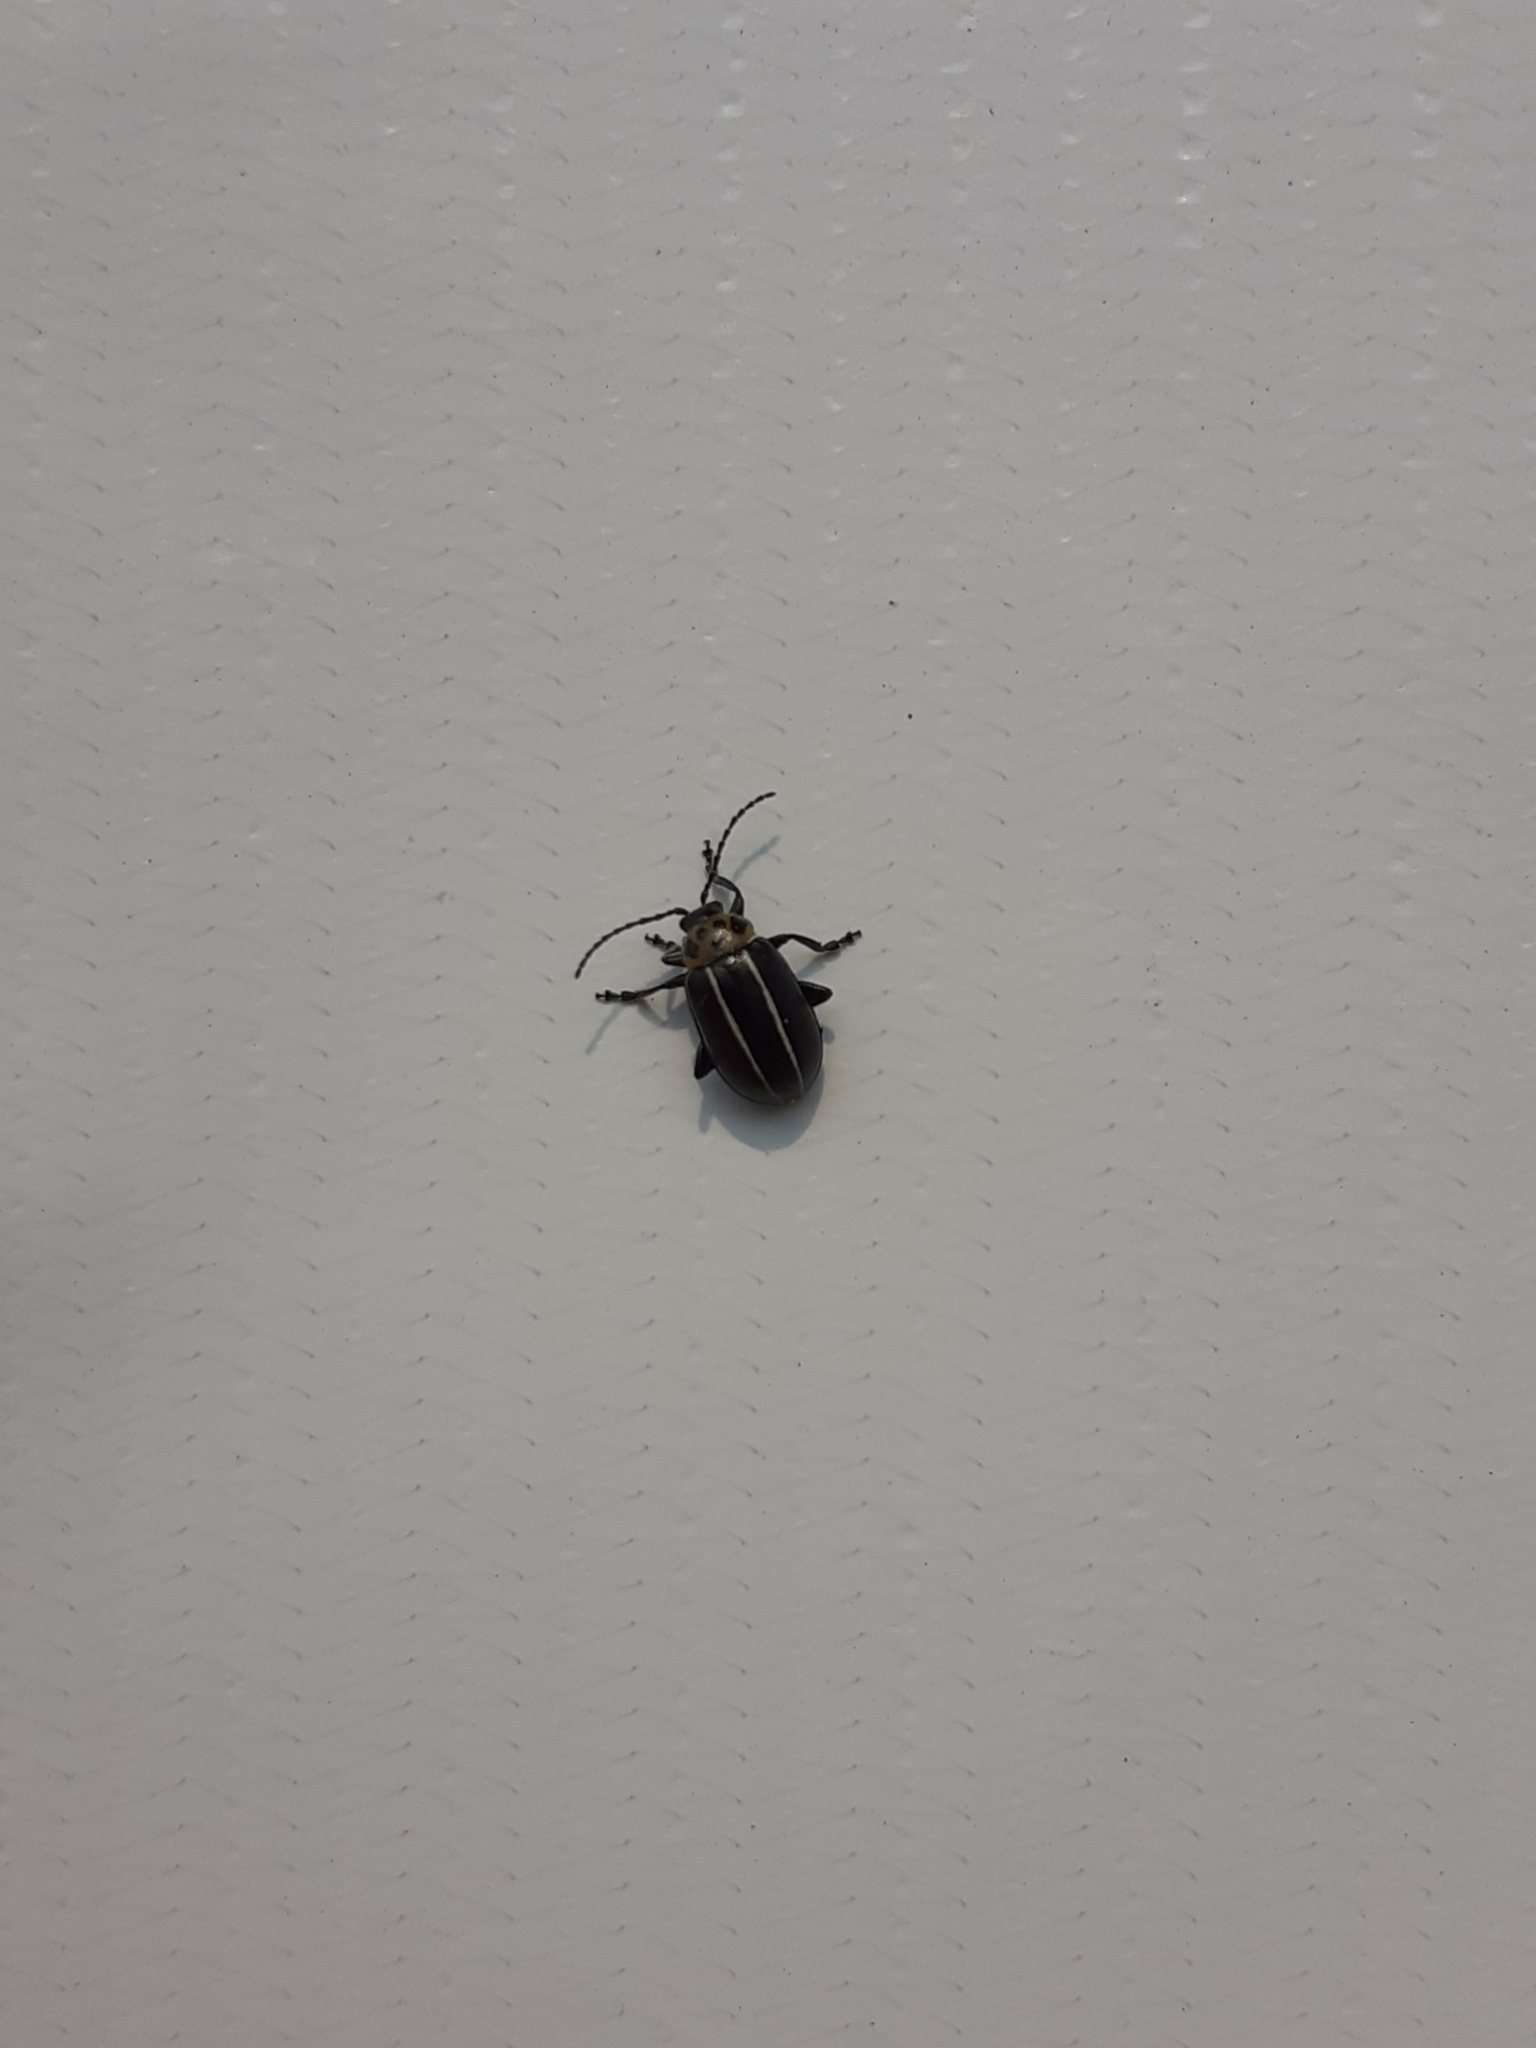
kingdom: Animalia
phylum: Arthropoda
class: Insecta
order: Coleoptera
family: Chrysomelidae
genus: Disonycha
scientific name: Disonycha
